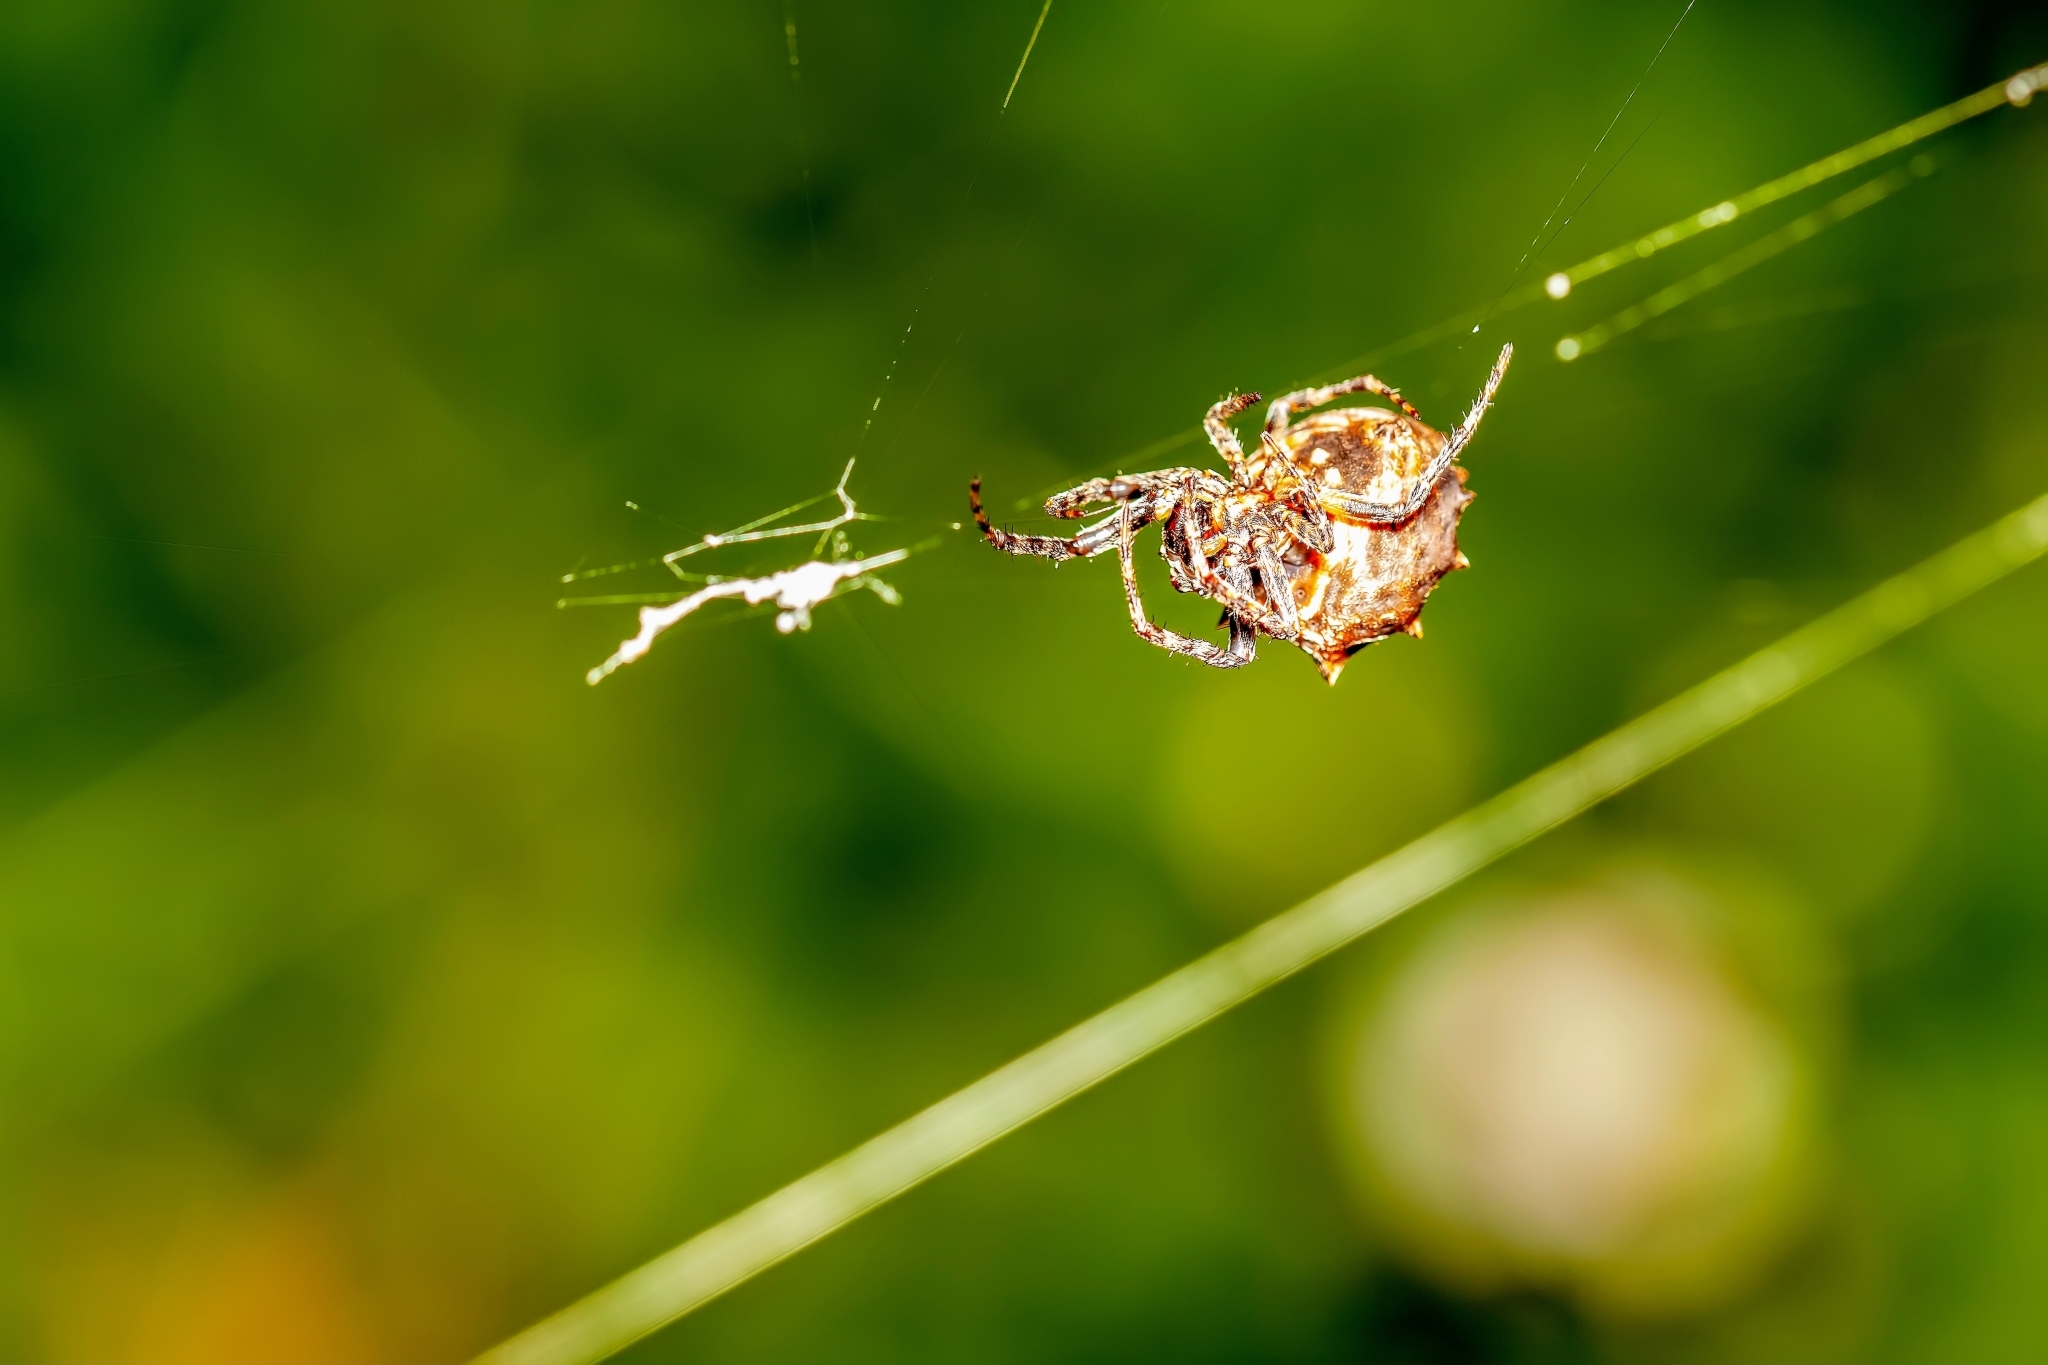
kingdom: Animalia
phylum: Arthropoda
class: Arachnida
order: Araneae
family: Araneidae
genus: Acanthepeira
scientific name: Acanthepeira venusta
